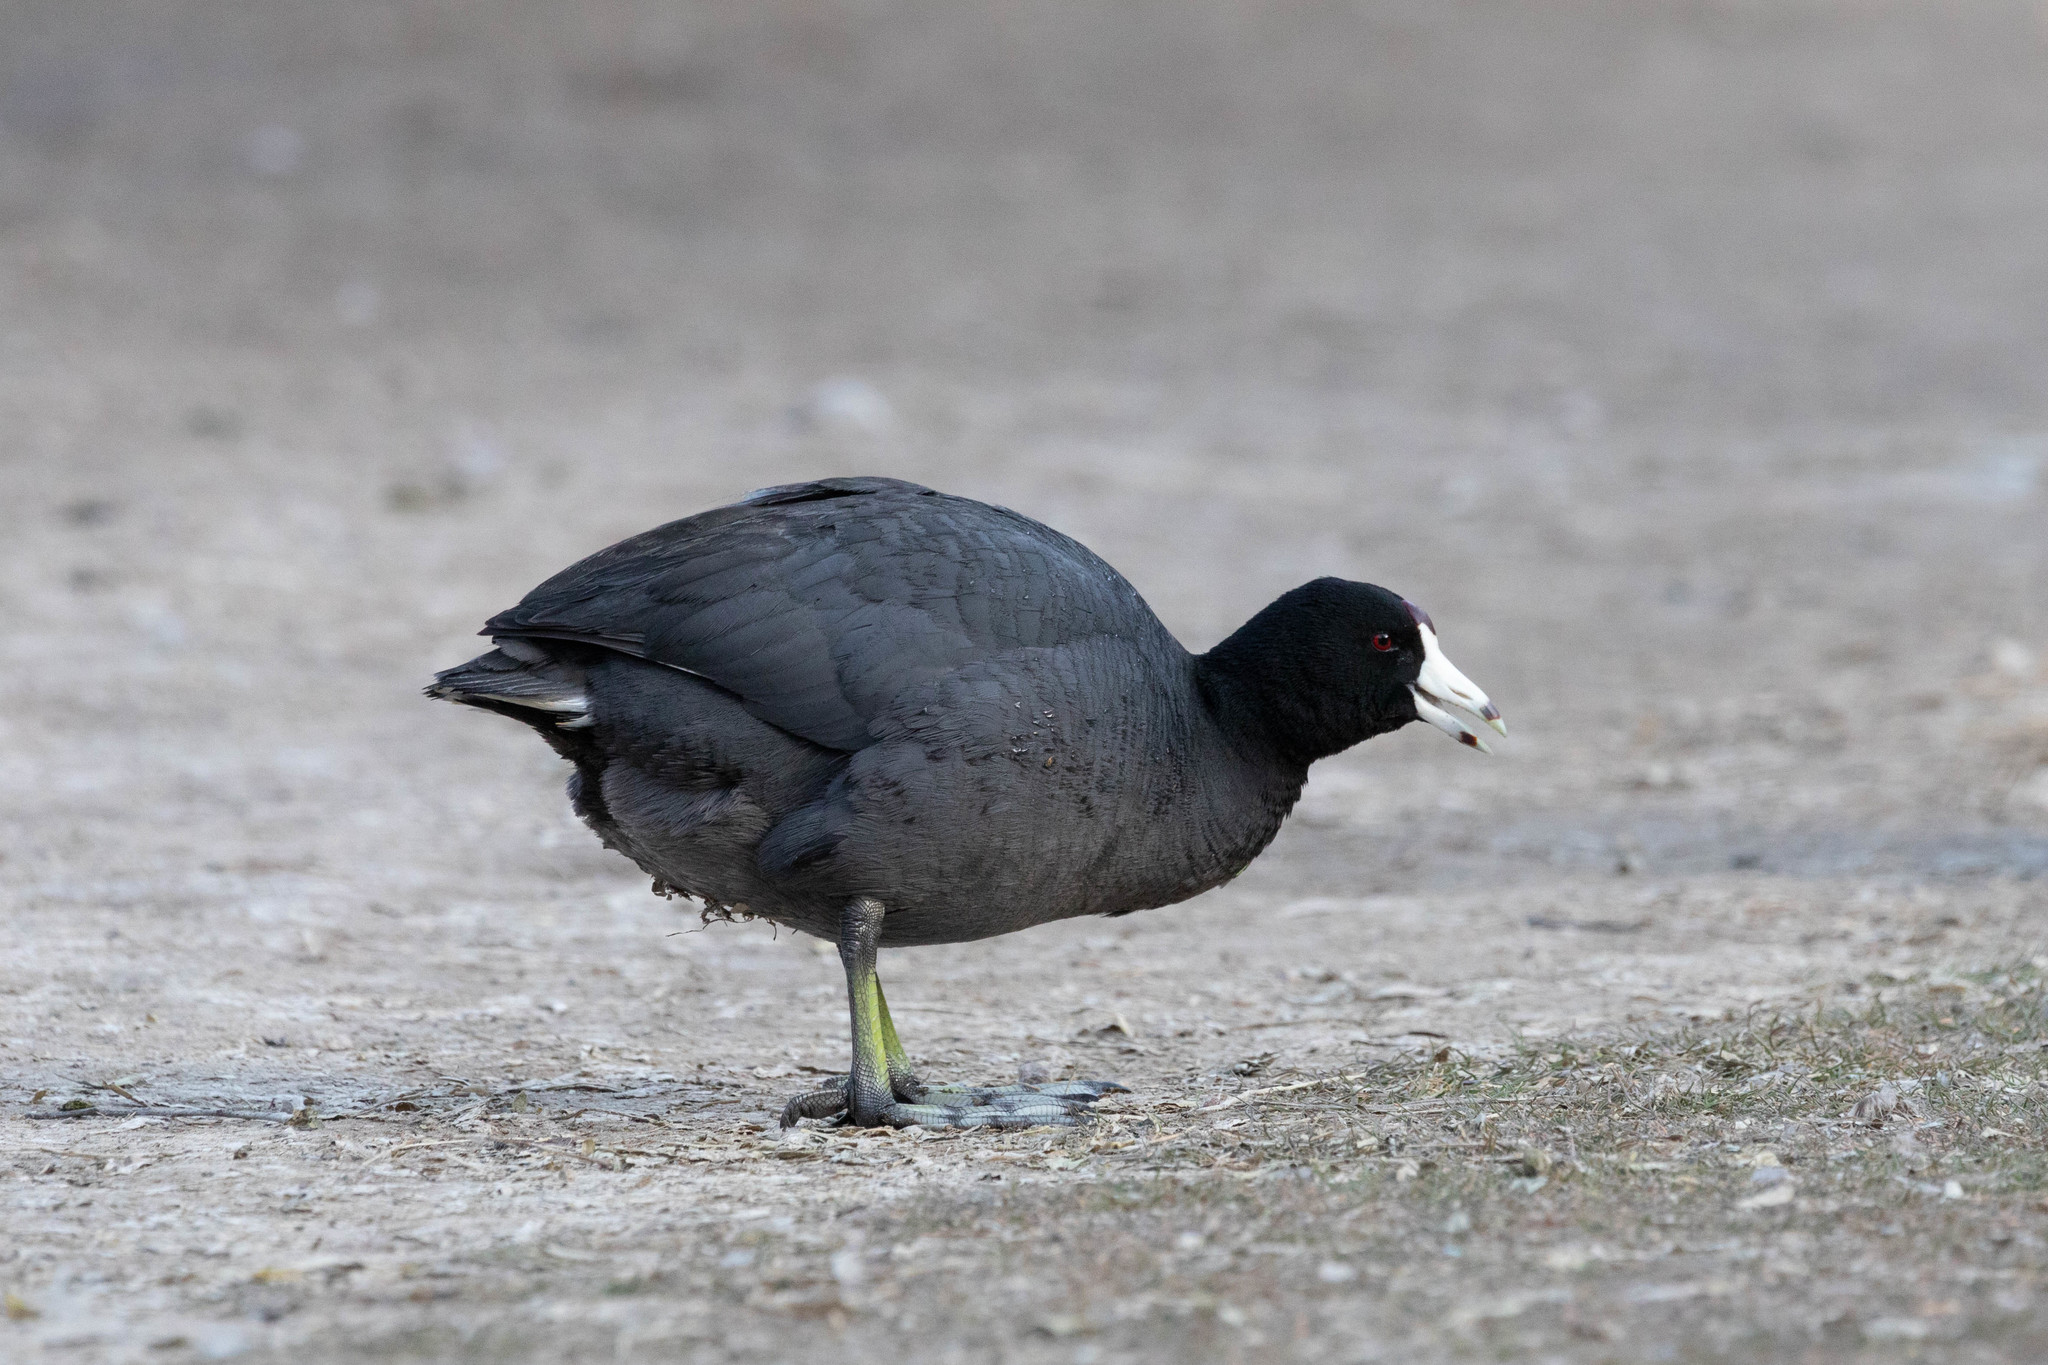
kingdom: Animalia
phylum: Chordata
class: Aves
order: Gruiformes
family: Rallidae
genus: Fulica
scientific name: Fulica americana
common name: American coot
